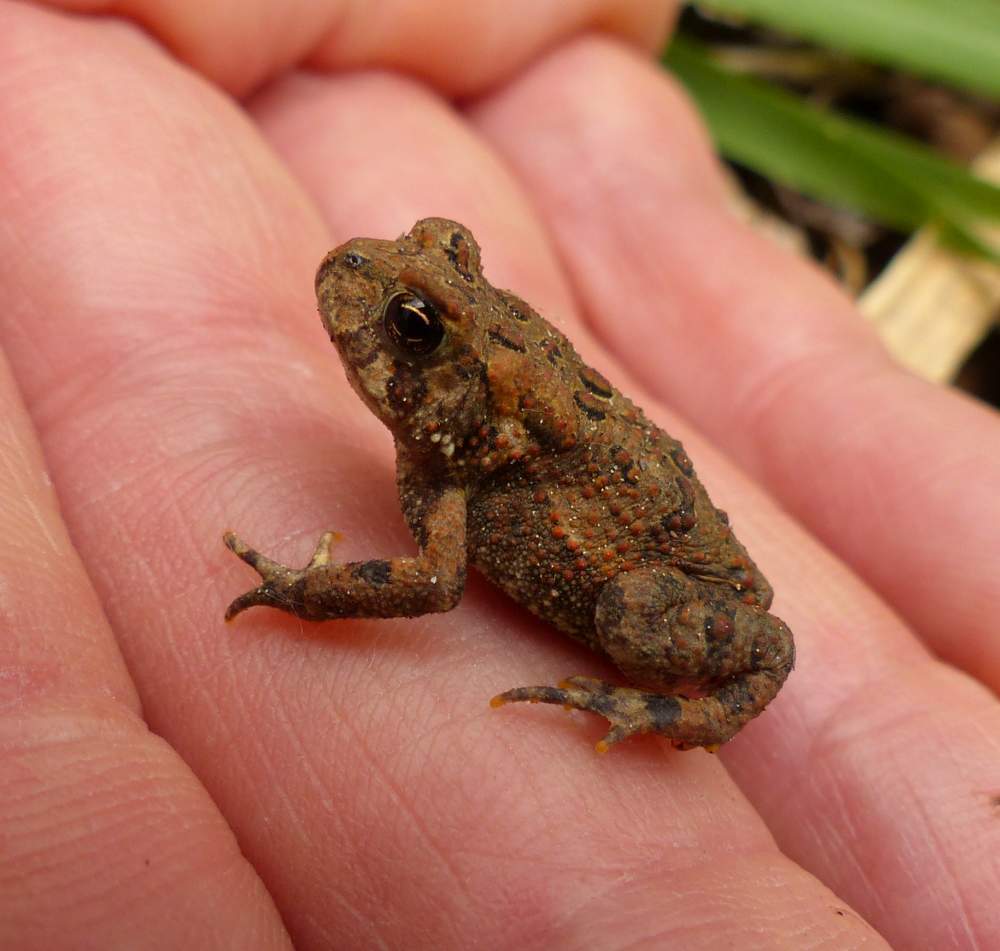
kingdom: Animalia
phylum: Chordata
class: Amphibia
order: Anura
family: Bufonidae
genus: Anaxyrus
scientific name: Anaxyrus americanus
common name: American toad
